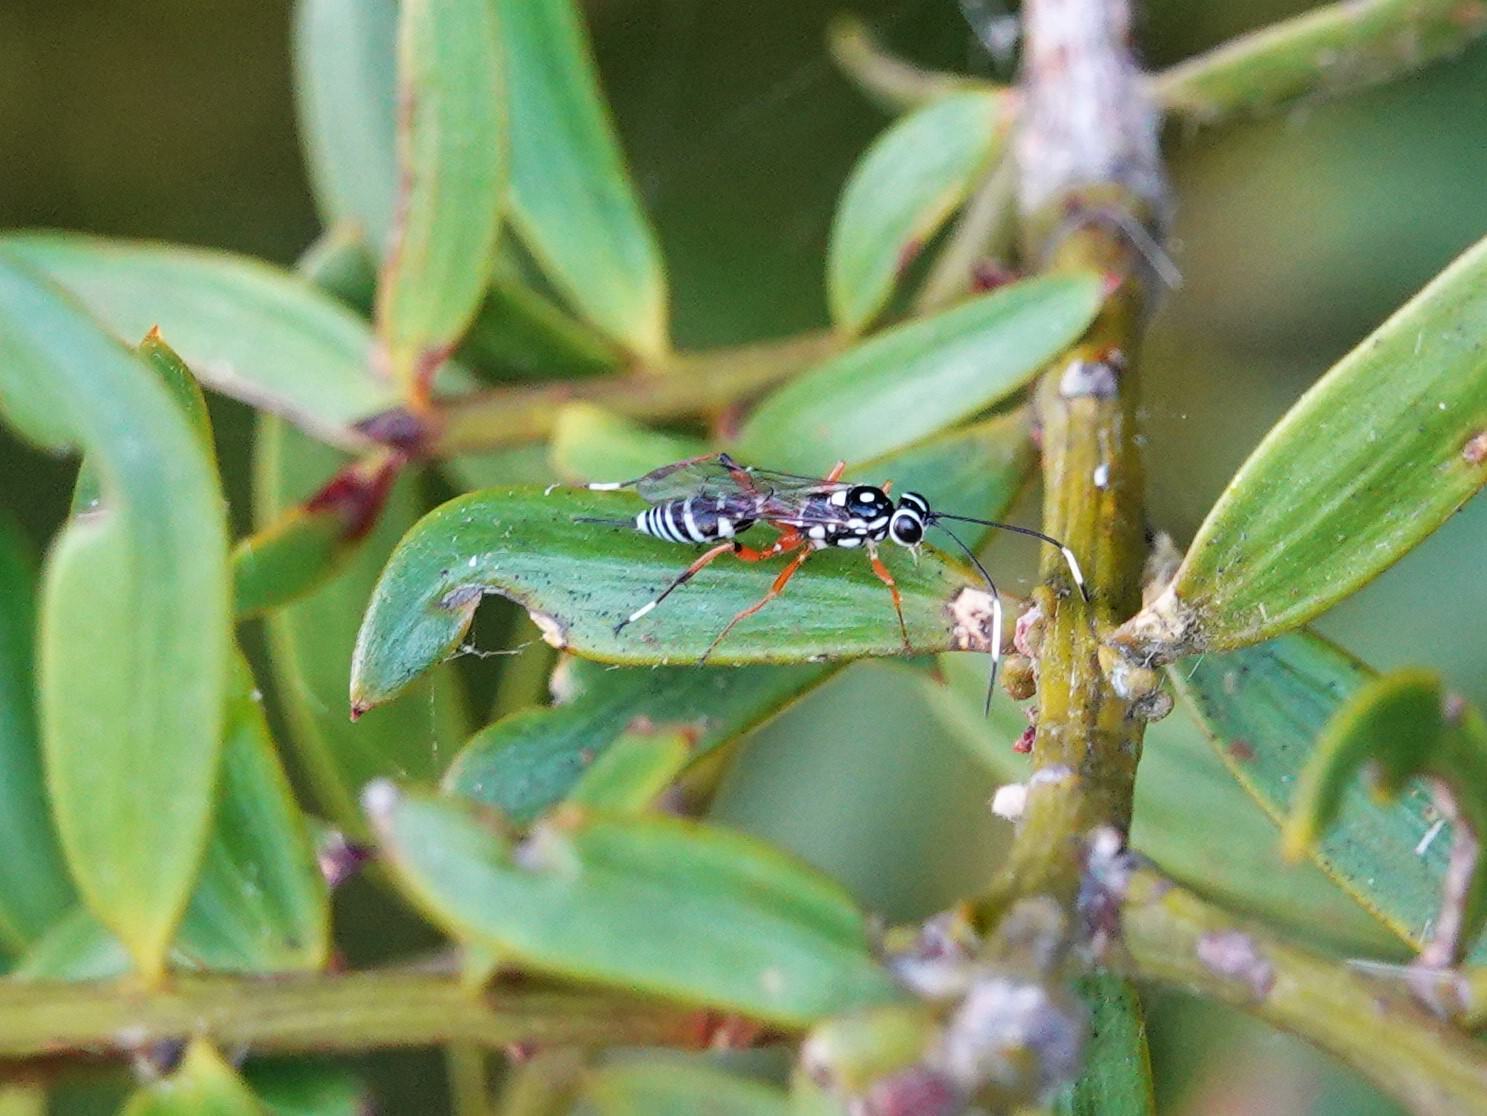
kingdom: Animalia
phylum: Arthropoda
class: Insecta
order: Hymenoptera
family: Ichneumonidae
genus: Glabridorsum
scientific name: Glabridorsum stokesii
